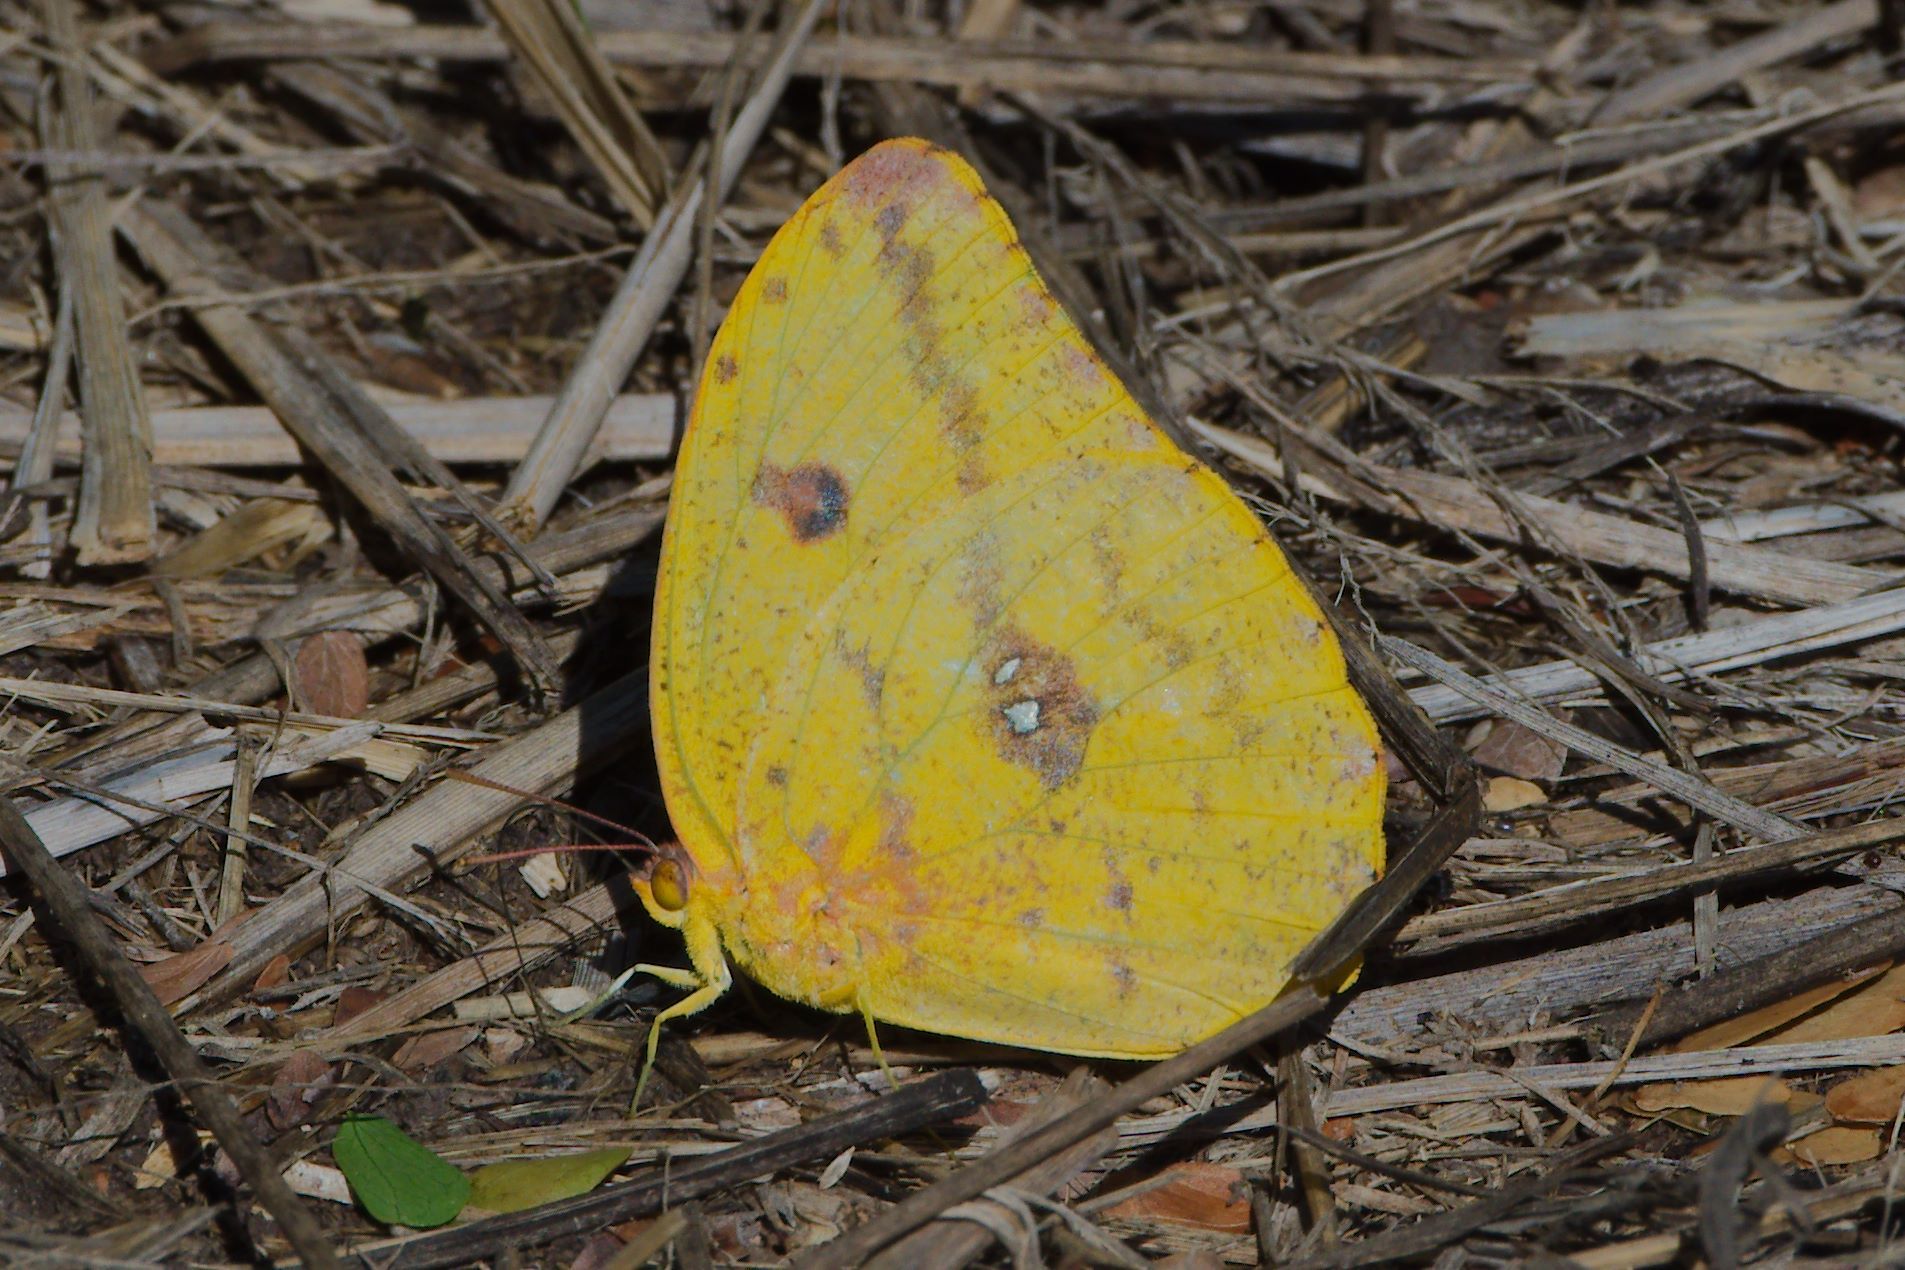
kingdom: Animalia
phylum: Arthropoda
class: Insecta
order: Lepidoptera
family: Pieridae
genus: Phoebis
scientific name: Phoebis agarithe
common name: Large orange sulphur
